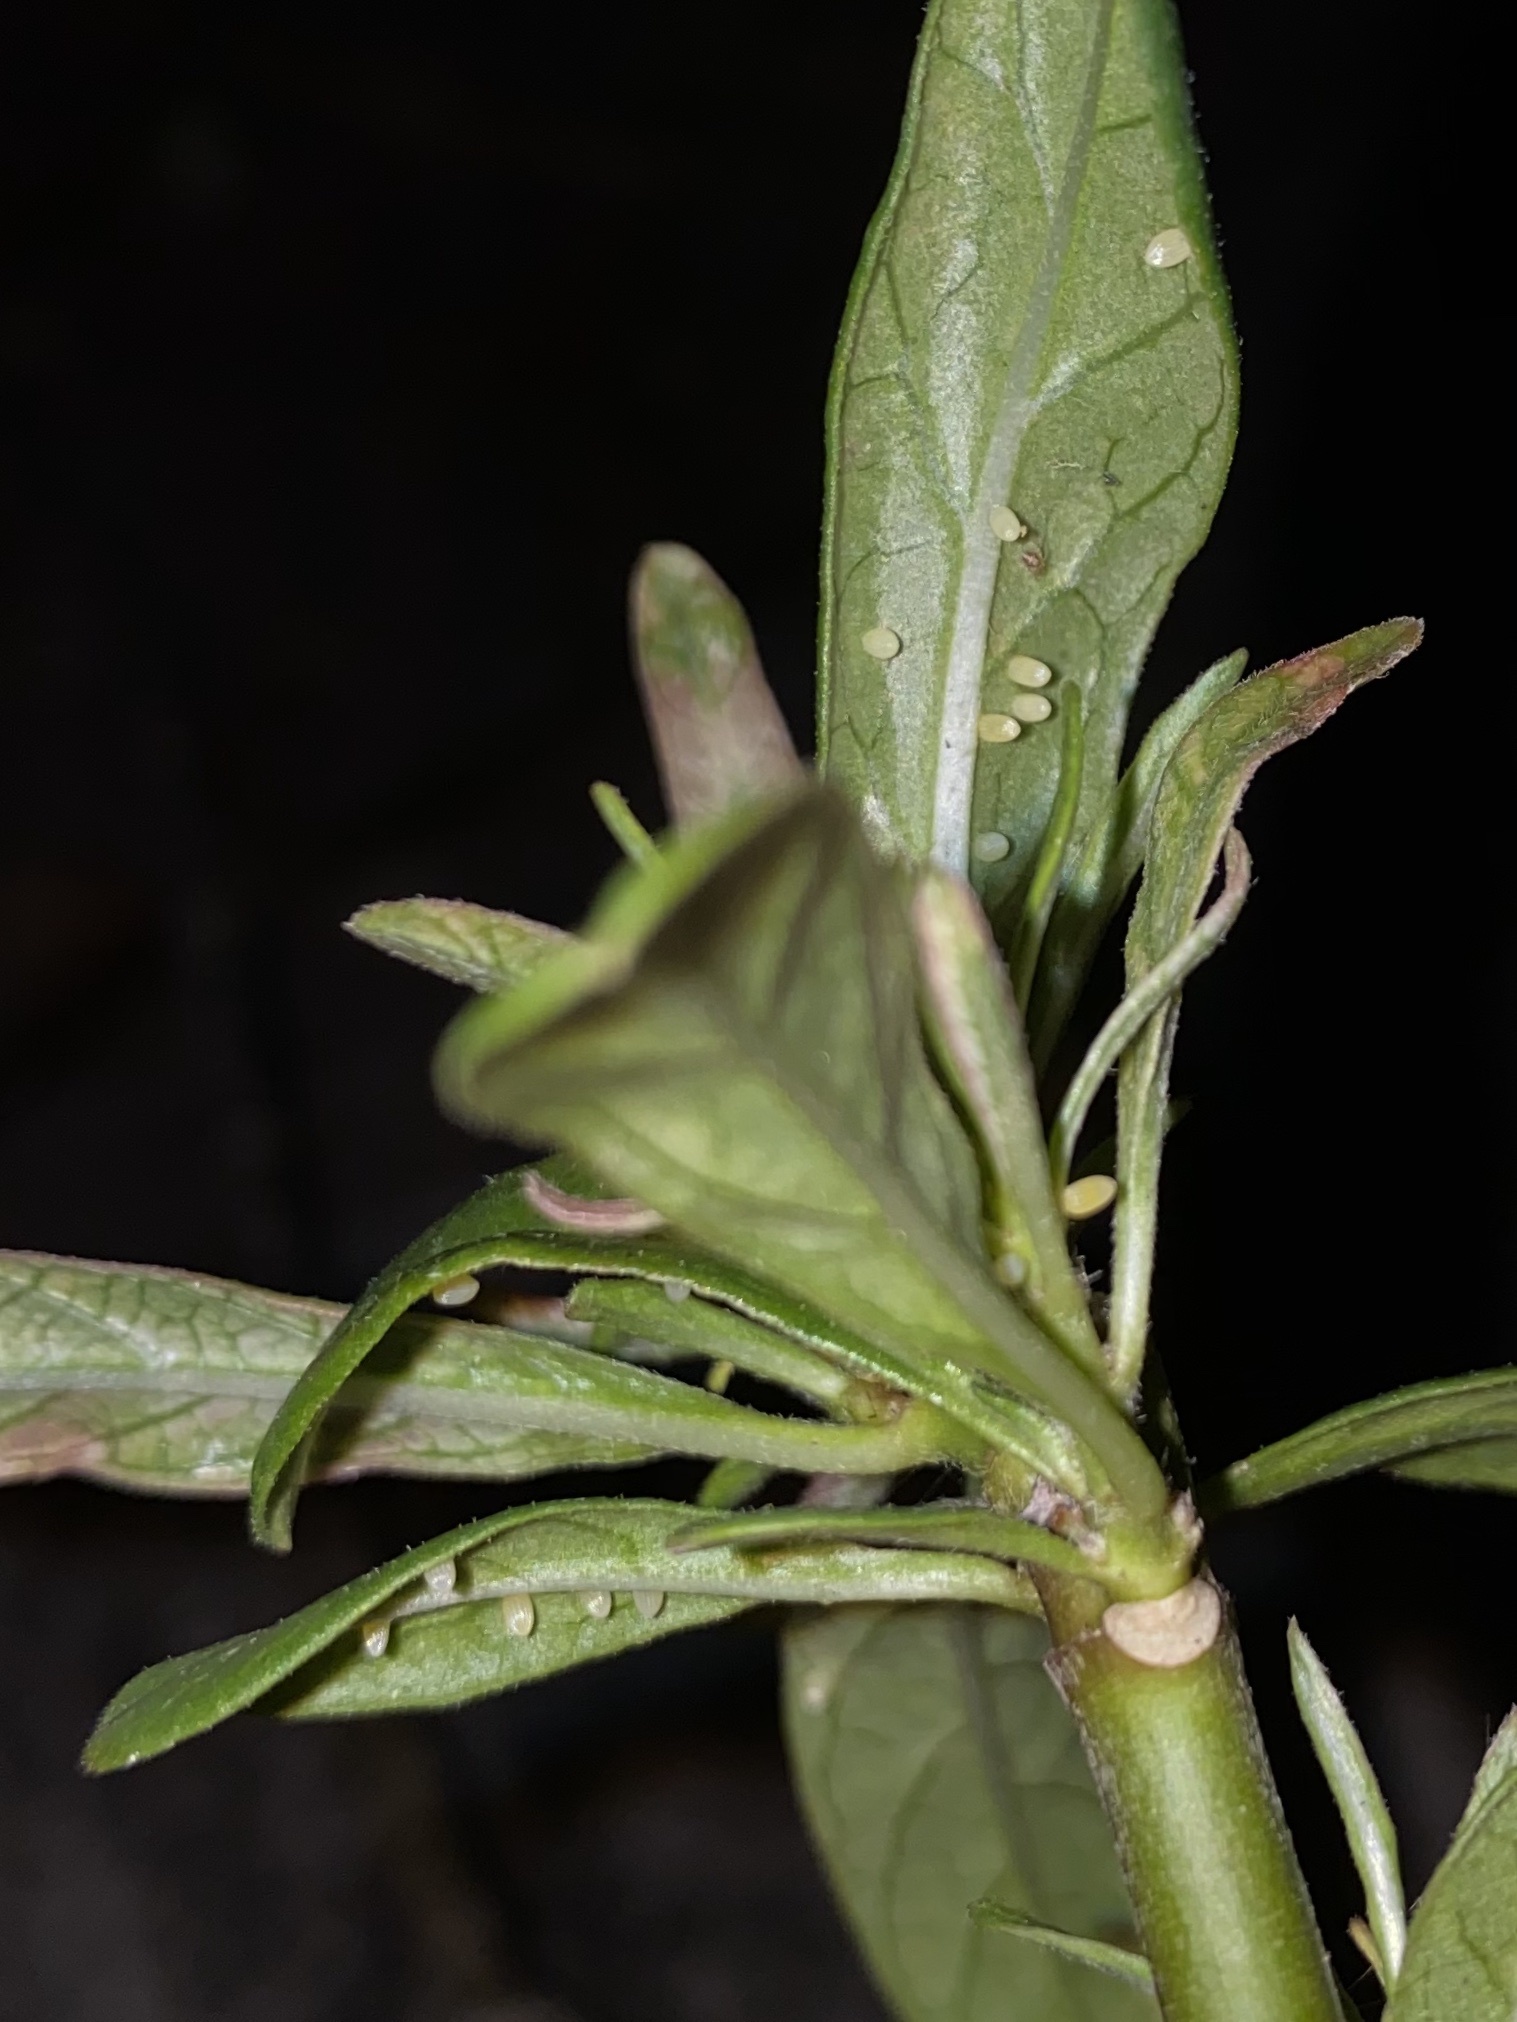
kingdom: Animalia
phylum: Arthropoda
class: Insecta
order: Lepidoptera
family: Nymphalidae
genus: Danaus
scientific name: Danaus plexippus
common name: Monarch
